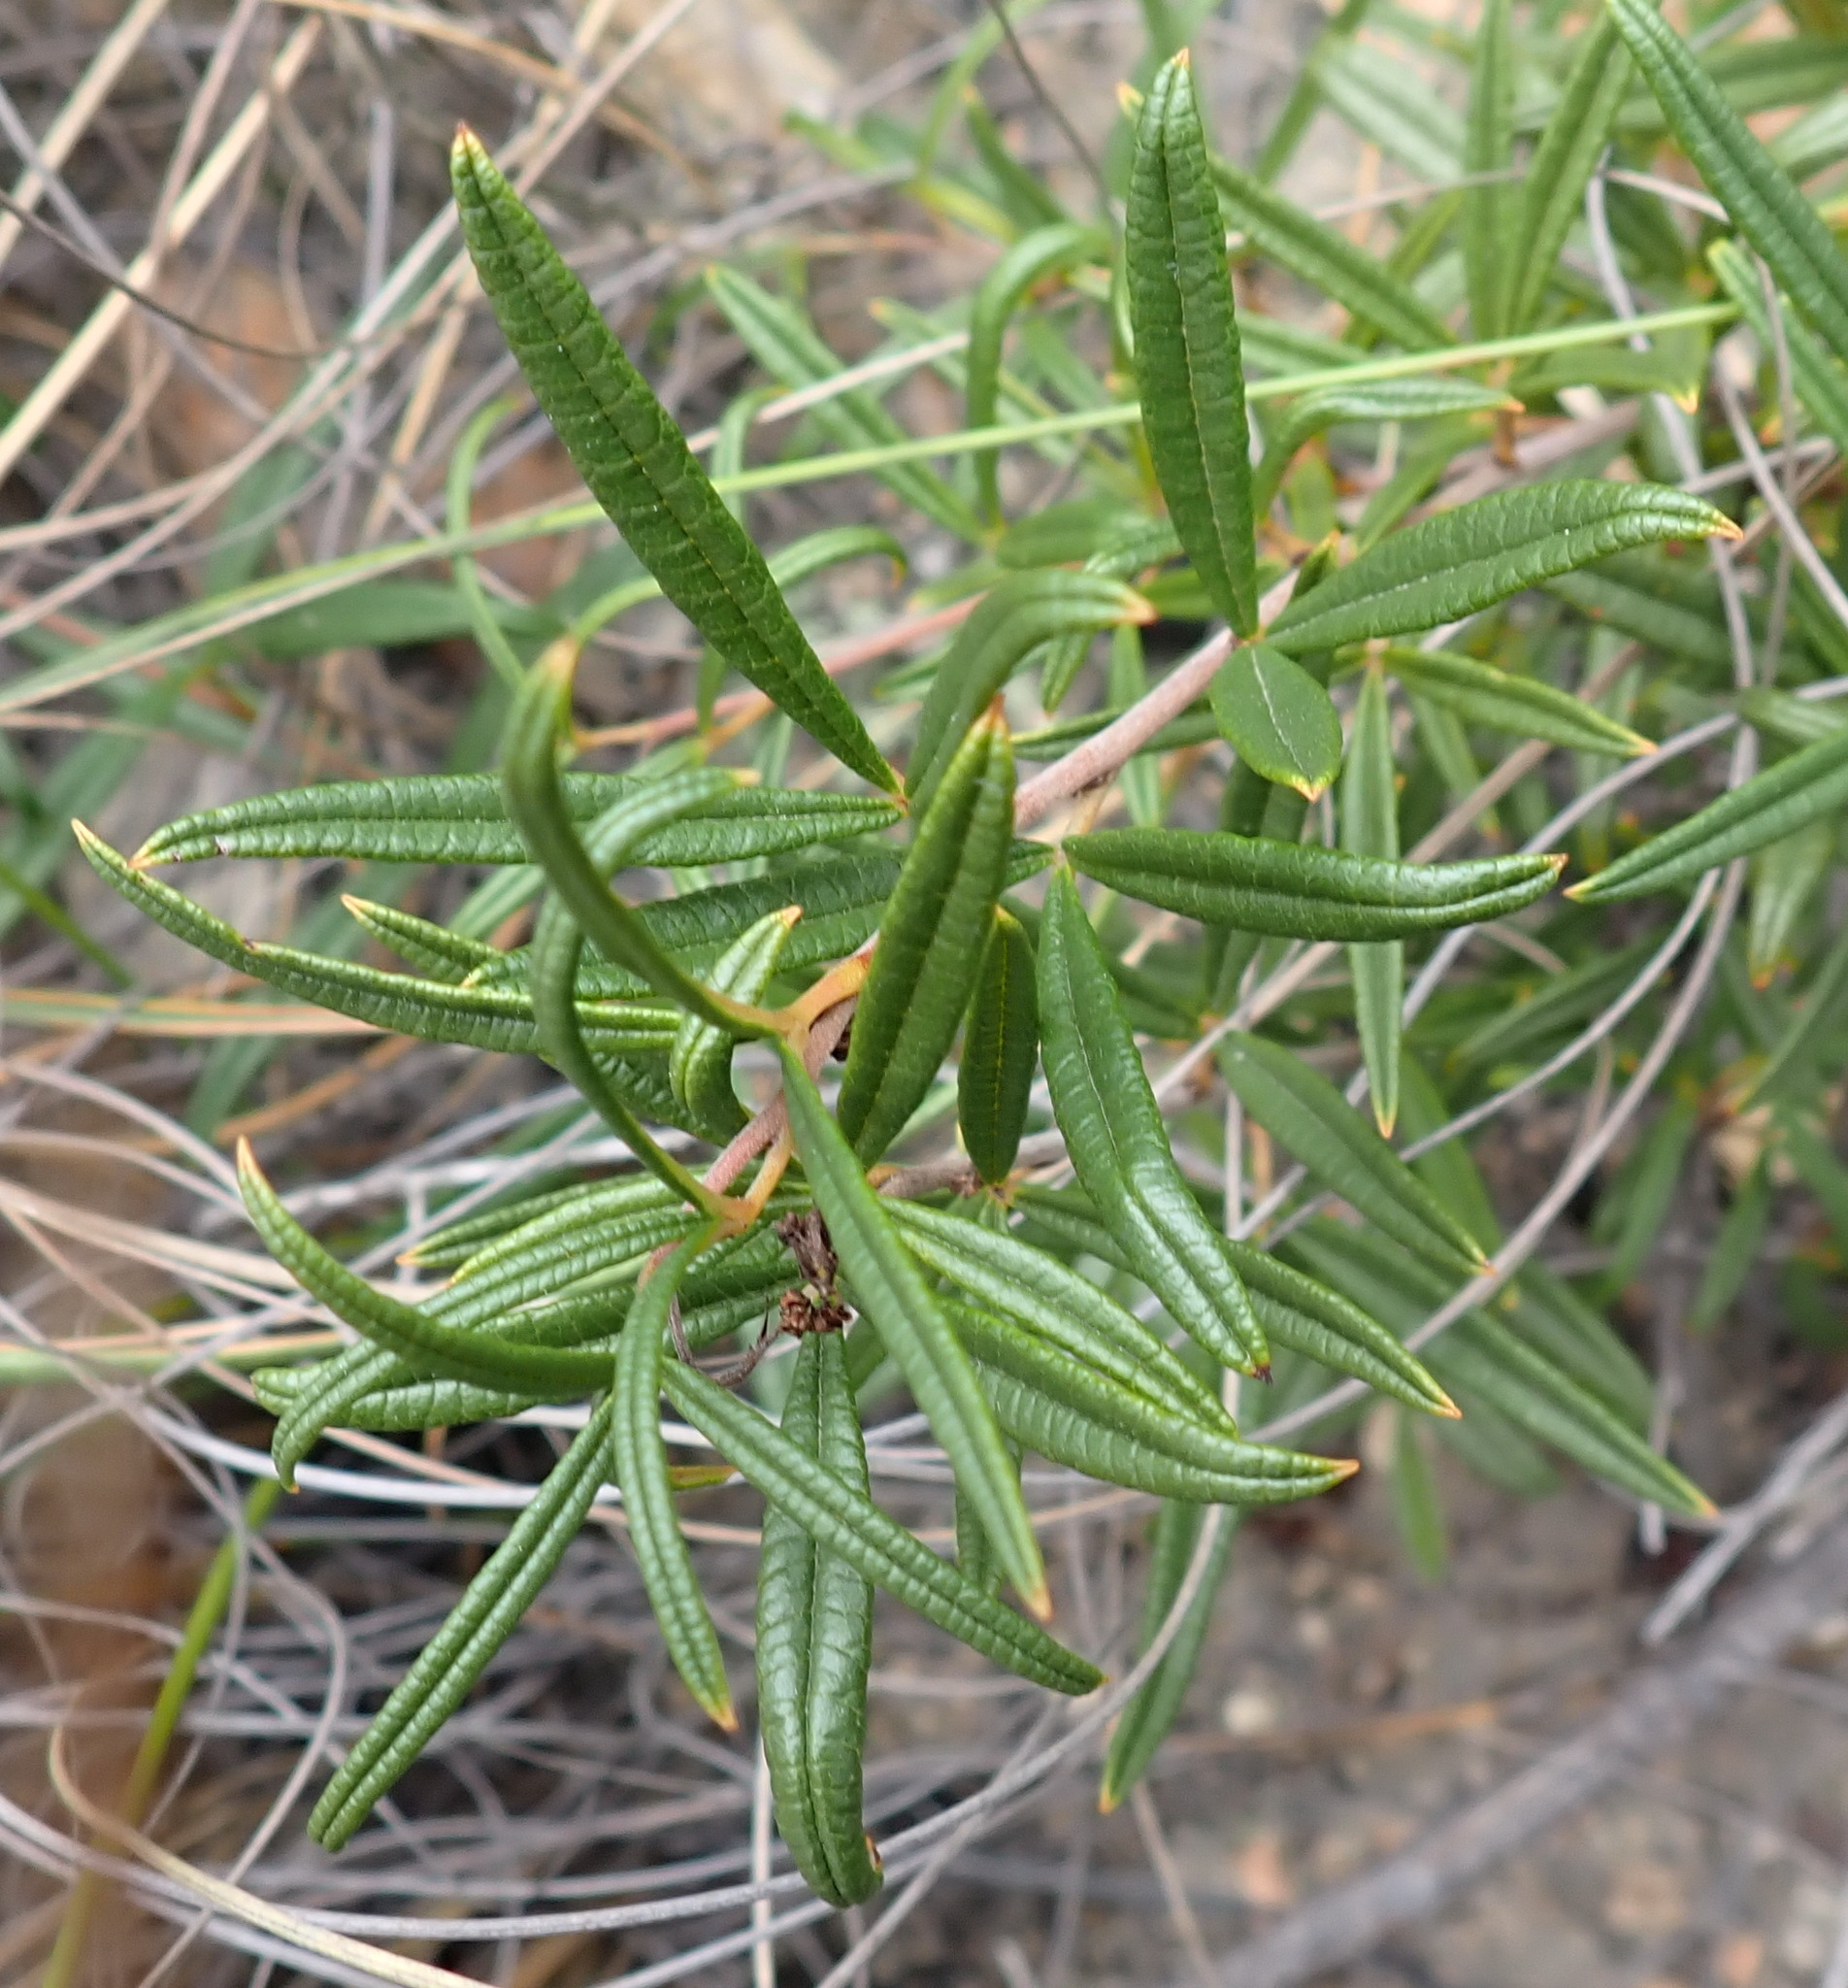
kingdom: Plantae
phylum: Tracheophyta
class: Magnoliopsida
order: Sapindales
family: Anacardiaceae
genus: Searsia
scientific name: Searsia rosmarinifolia
